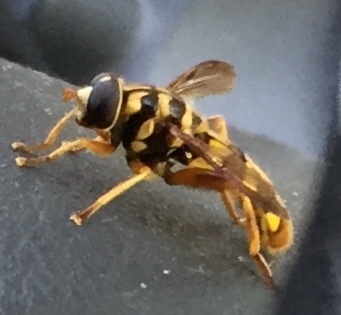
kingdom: Animalia
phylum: Arthropoda
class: Insecta
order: Diptera
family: Syrphidae
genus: Milesia
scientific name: Milesia virginiensis
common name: Virginia giant
